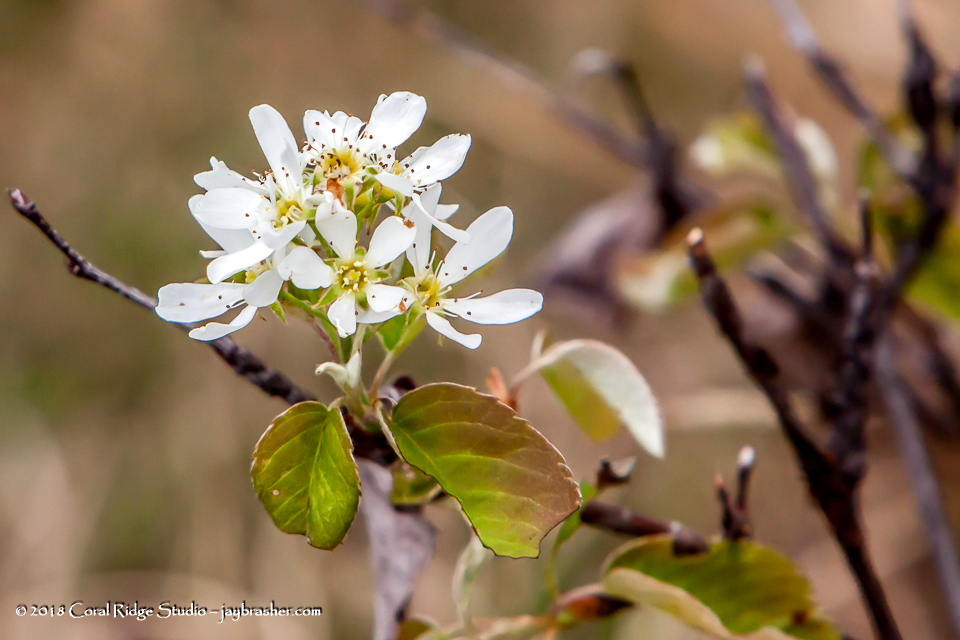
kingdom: Plantae
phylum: Tracheophyta
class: Magnoliopsida
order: Rosales
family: Rosaceae
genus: Amelanchier
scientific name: Amelanchier alnifolia
